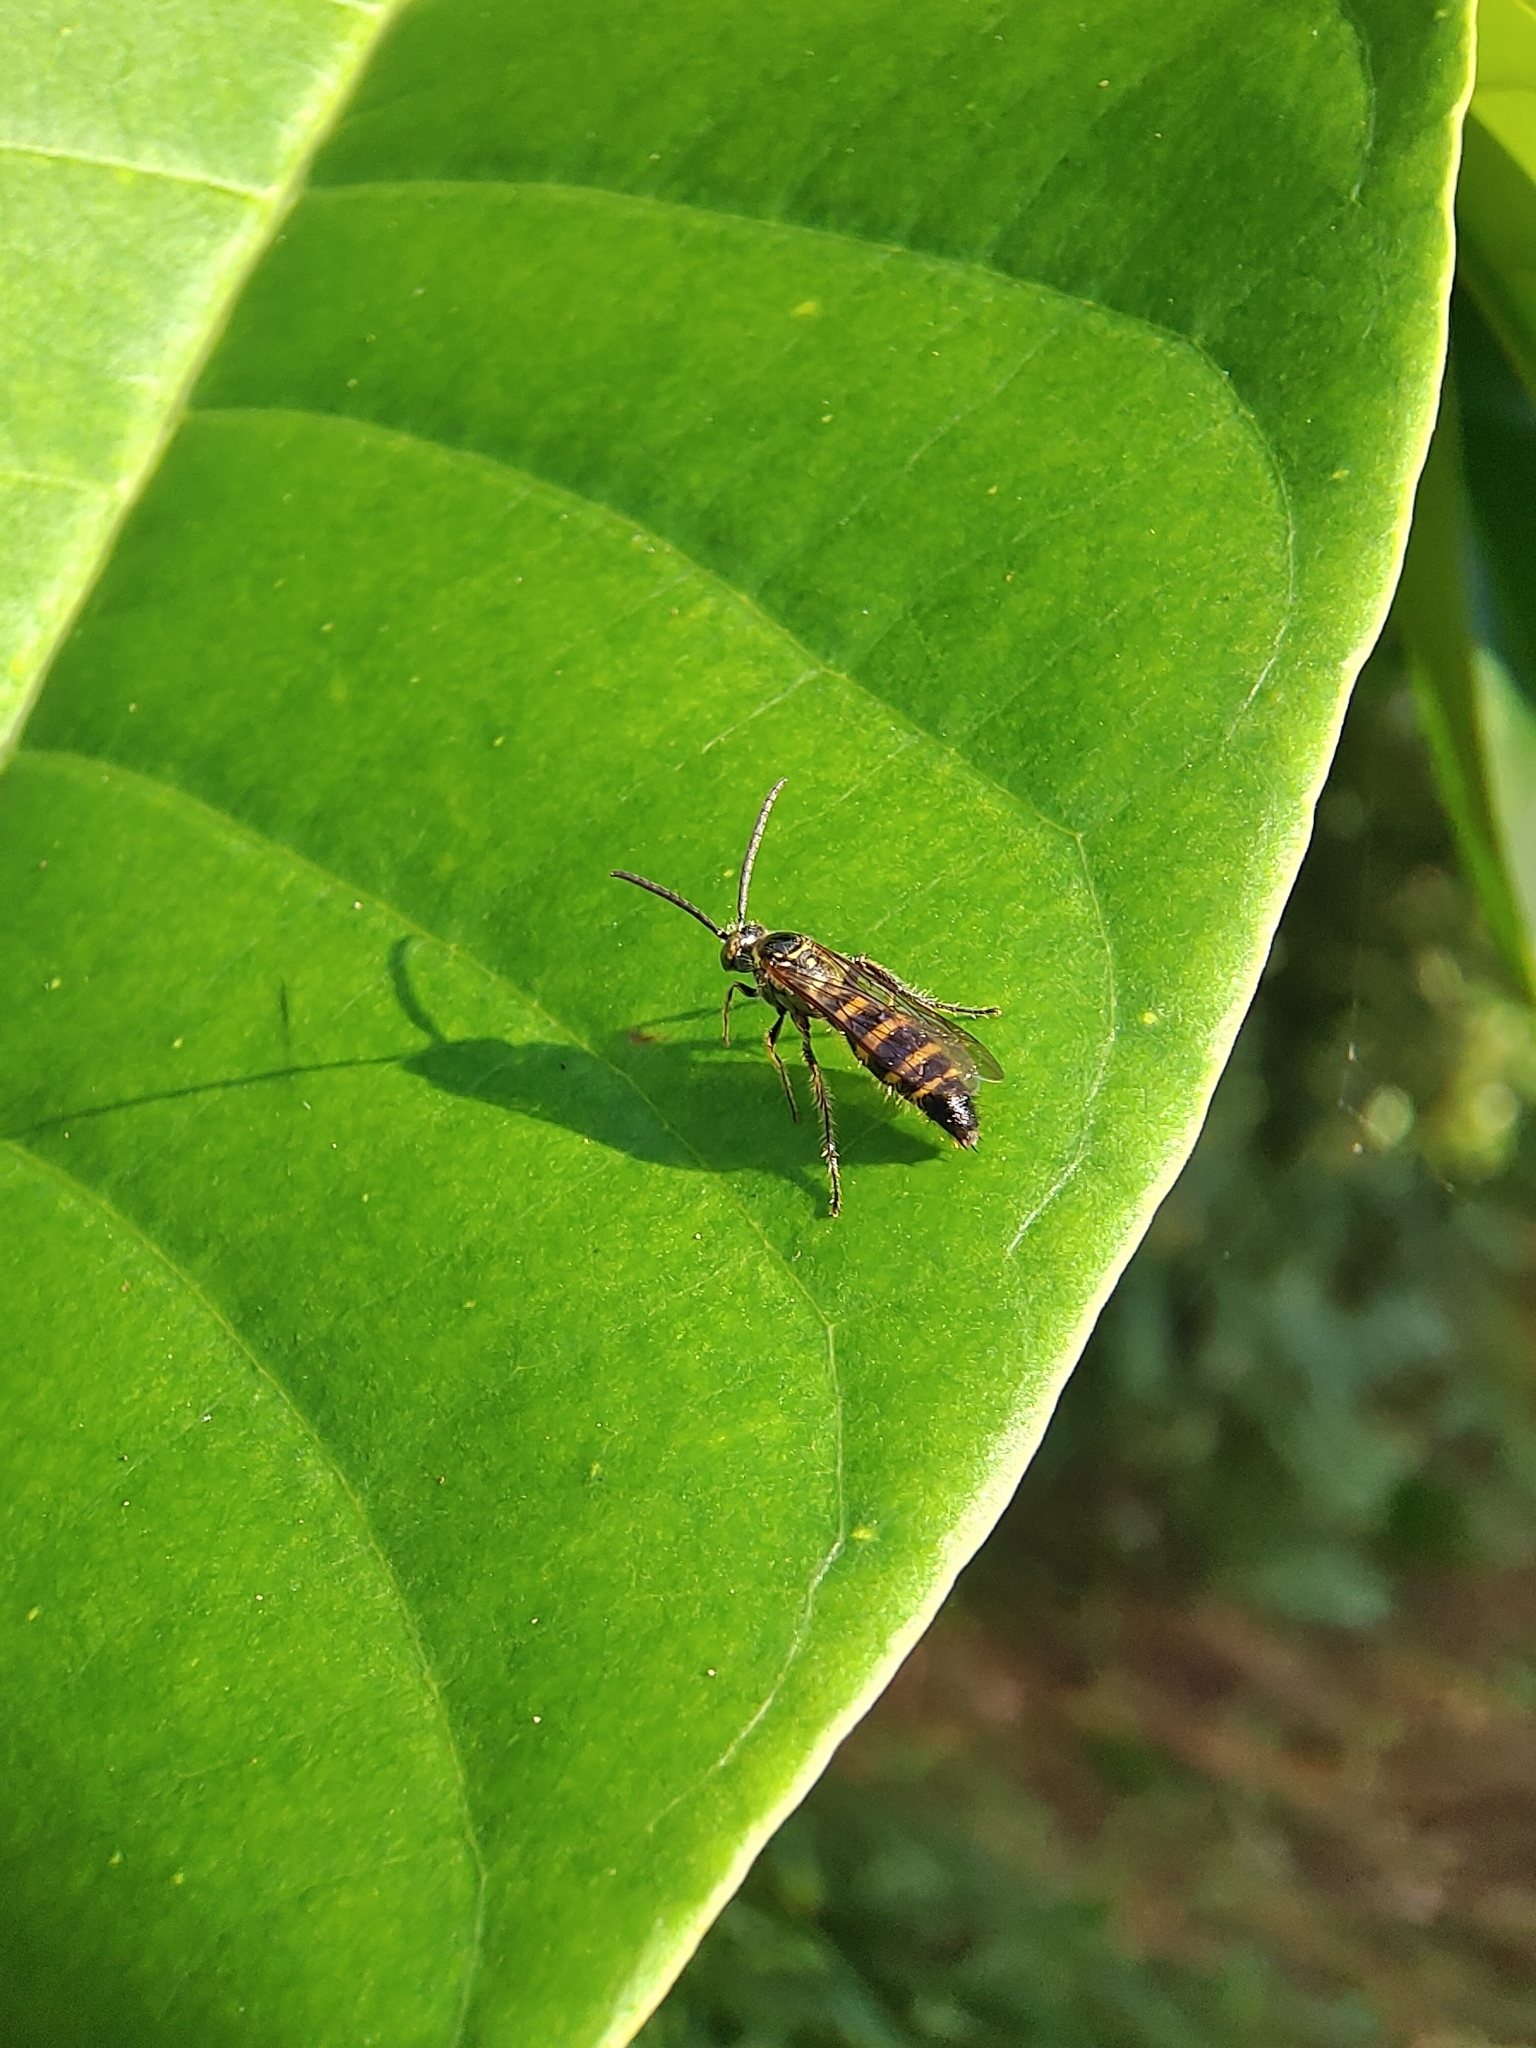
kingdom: Animalia
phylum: Arthropoda
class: Insecta
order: Hymenoptera
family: Scoliidae
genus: Campsomeris
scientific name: Campsomeris phalerata
